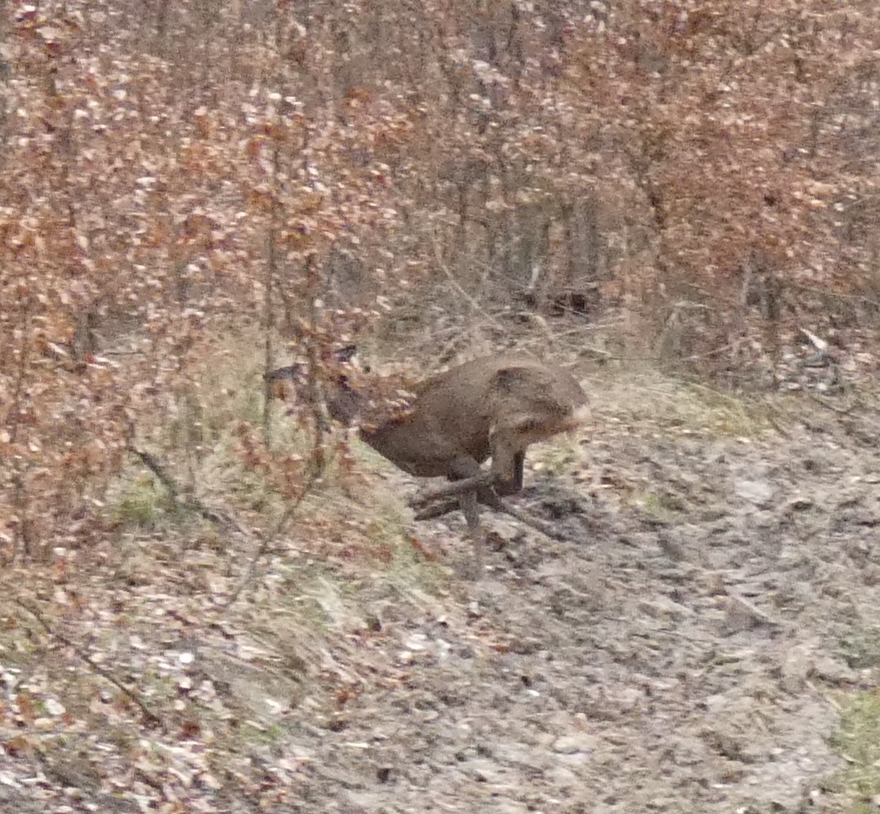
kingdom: Animalia
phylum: Chordata
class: Mammalia
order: Artiodactyla
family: Cervidae
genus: Capreolus
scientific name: Capreolus capreolus
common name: Western roe deer
